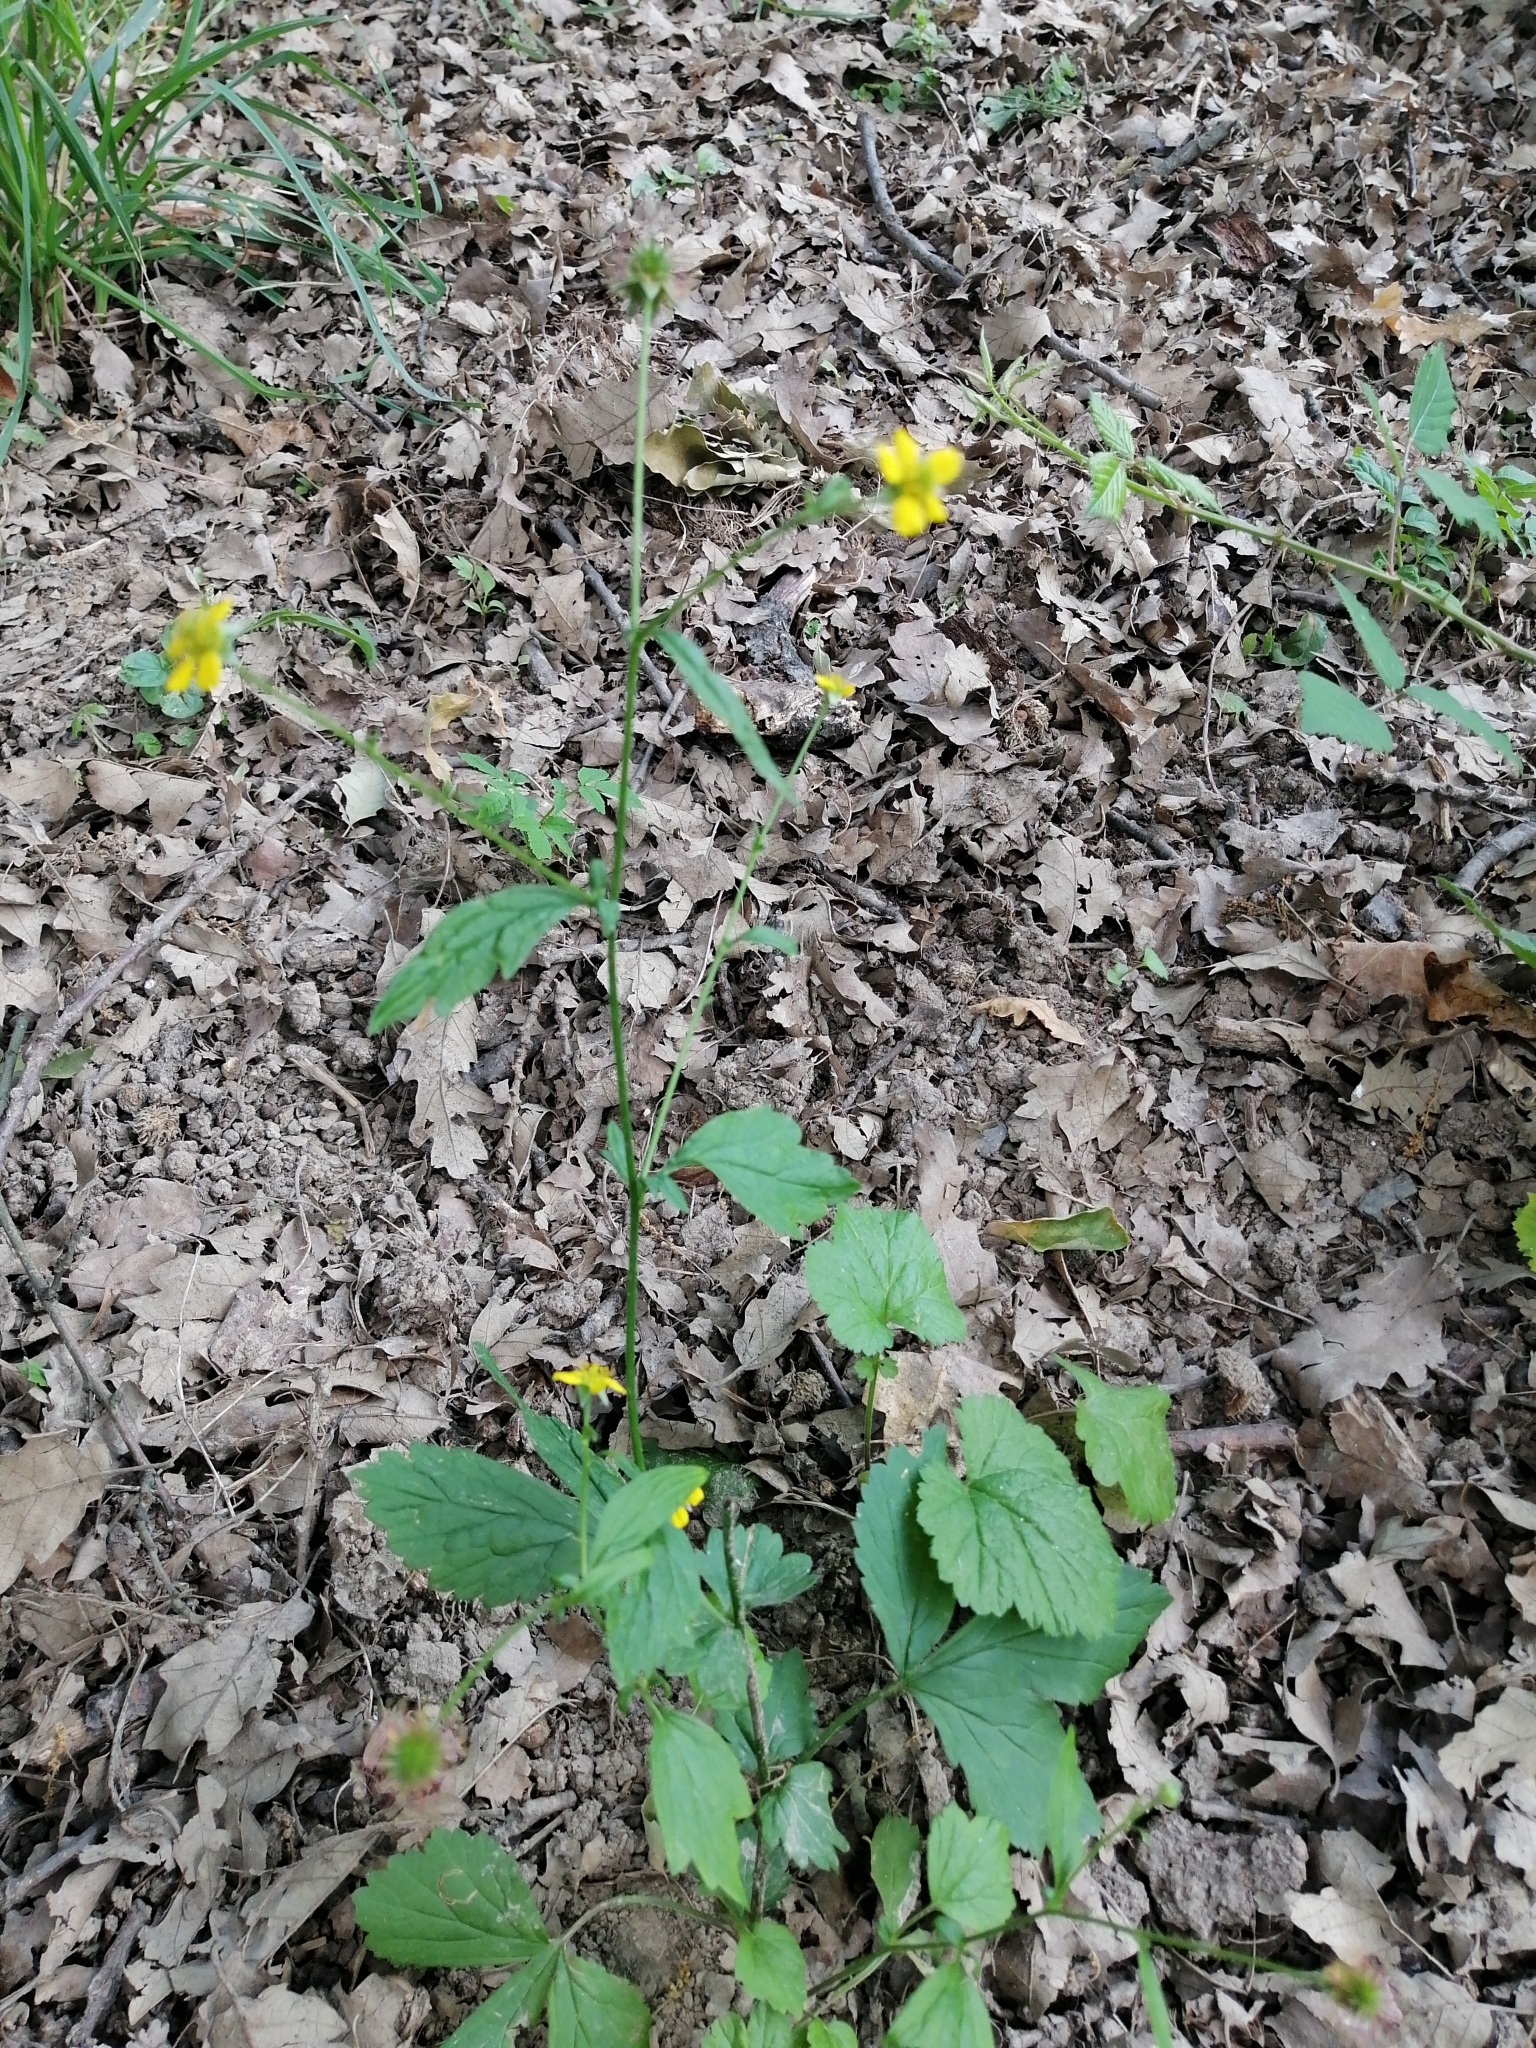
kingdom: Plantae
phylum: Tracheophyta
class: Magnoliopsida
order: Rosales
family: Rosaceae
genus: Geum
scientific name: Geum urbanum
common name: Wood avens
